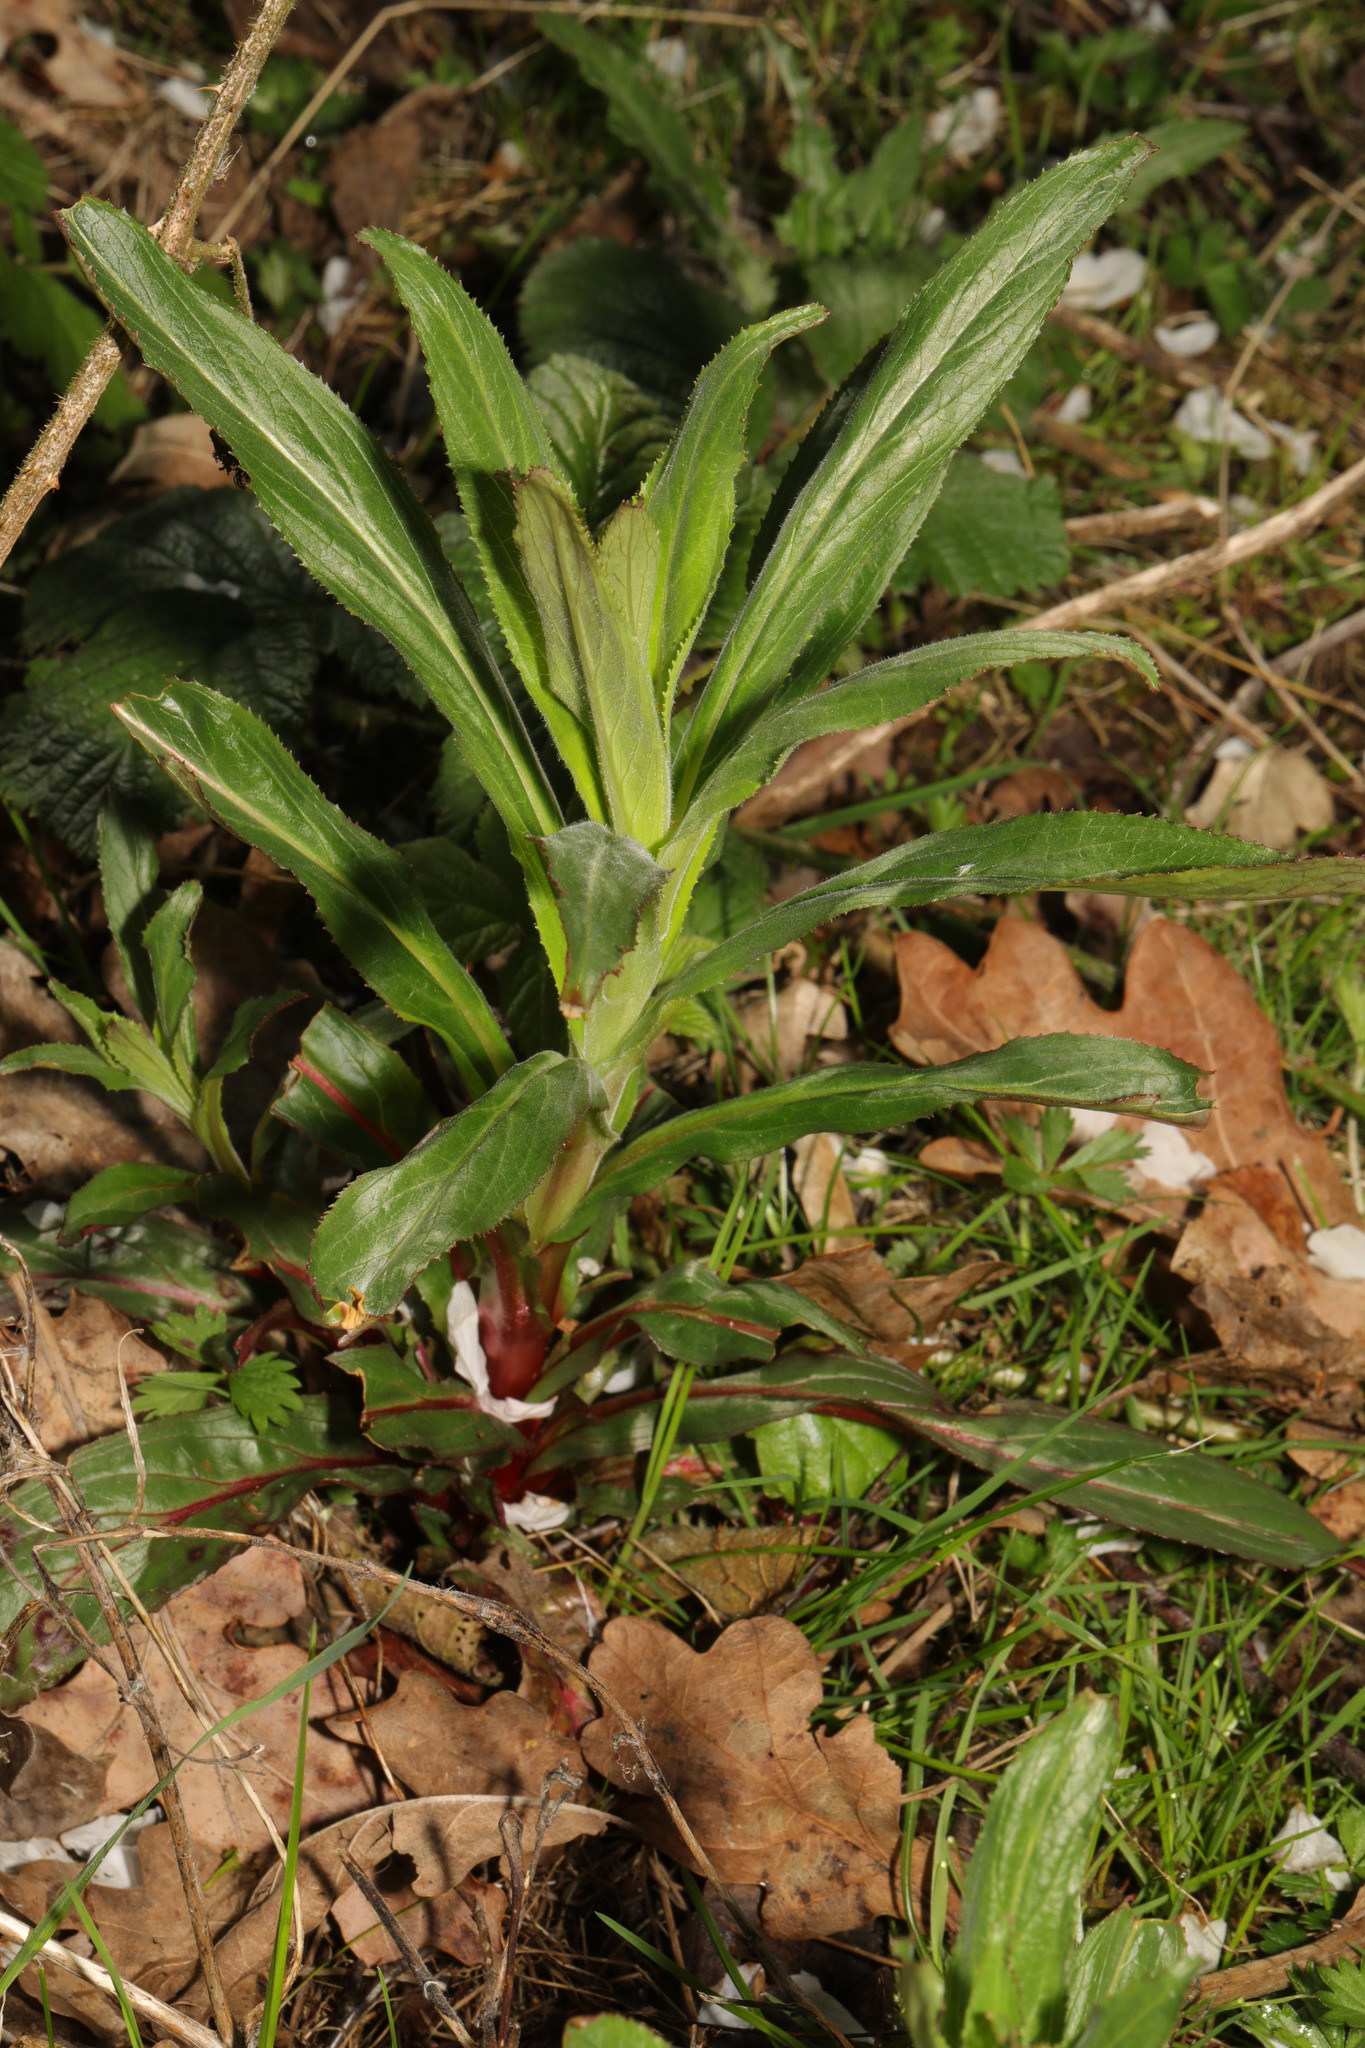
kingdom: Plantae
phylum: Tracheophyta
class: Magnoliopsida
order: Myrtales
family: Onagraceae
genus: Epilobium
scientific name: Epilobium hirsutum
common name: Great willowherb
